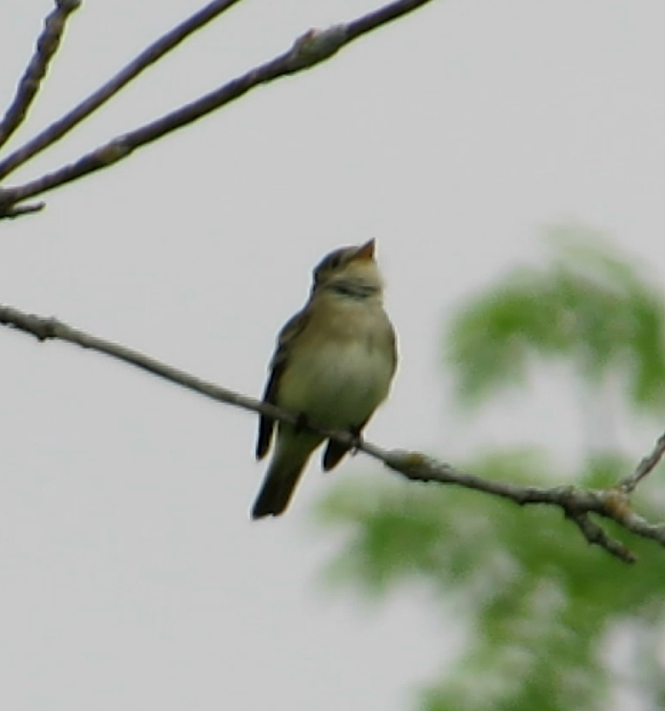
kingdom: Animalia
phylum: Chordata
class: Aves
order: Passeriformes
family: Tyrannidae
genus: Empidonax
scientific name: Empidonax alnorum
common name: Alder flycatcher
